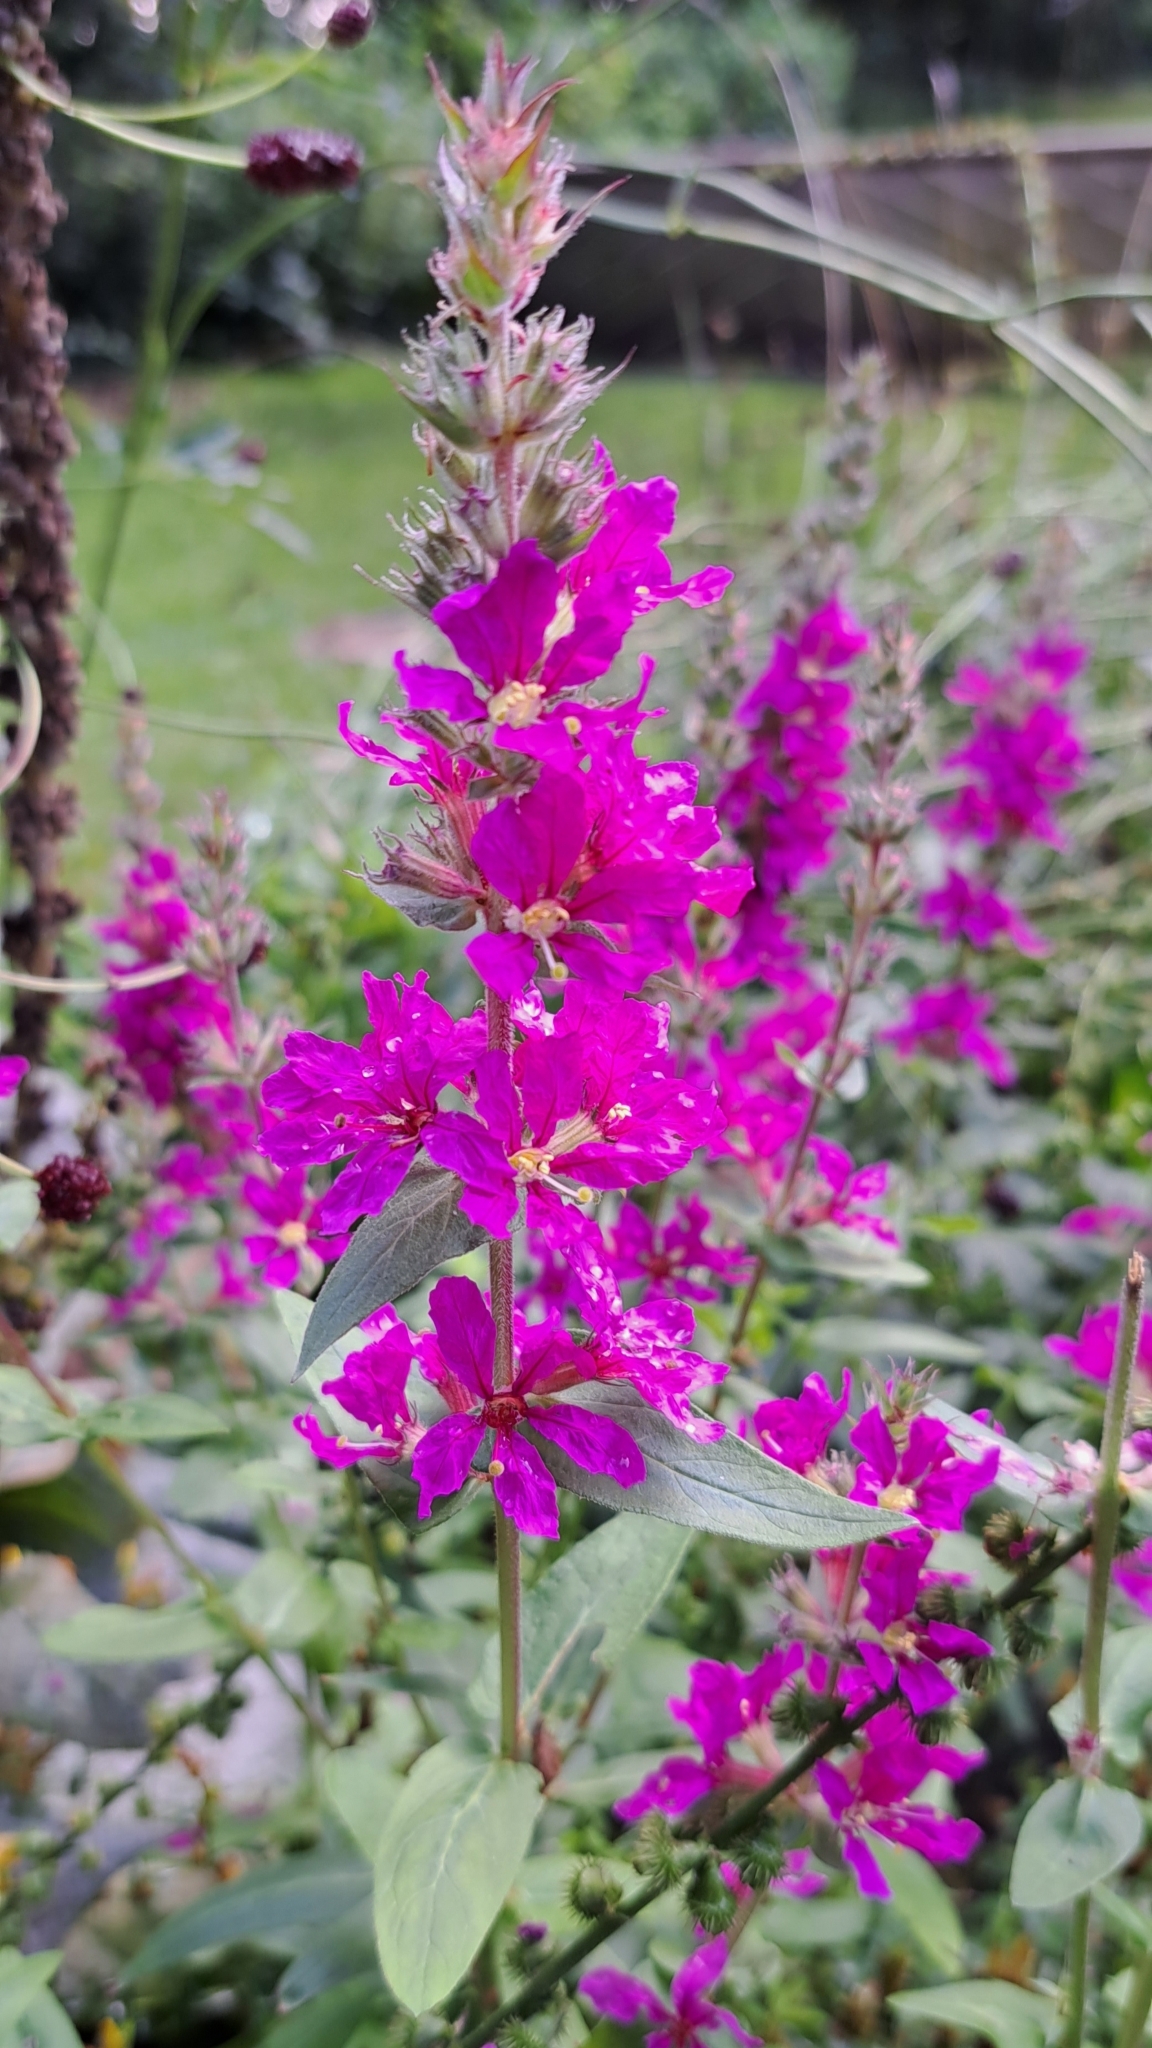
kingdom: Plantae
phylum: Tracheophyta
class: Magnoliopsida
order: Myrtales
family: Lythraceae
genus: Lythrum
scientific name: Lythrum salicaria
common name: Purple loosestrife
